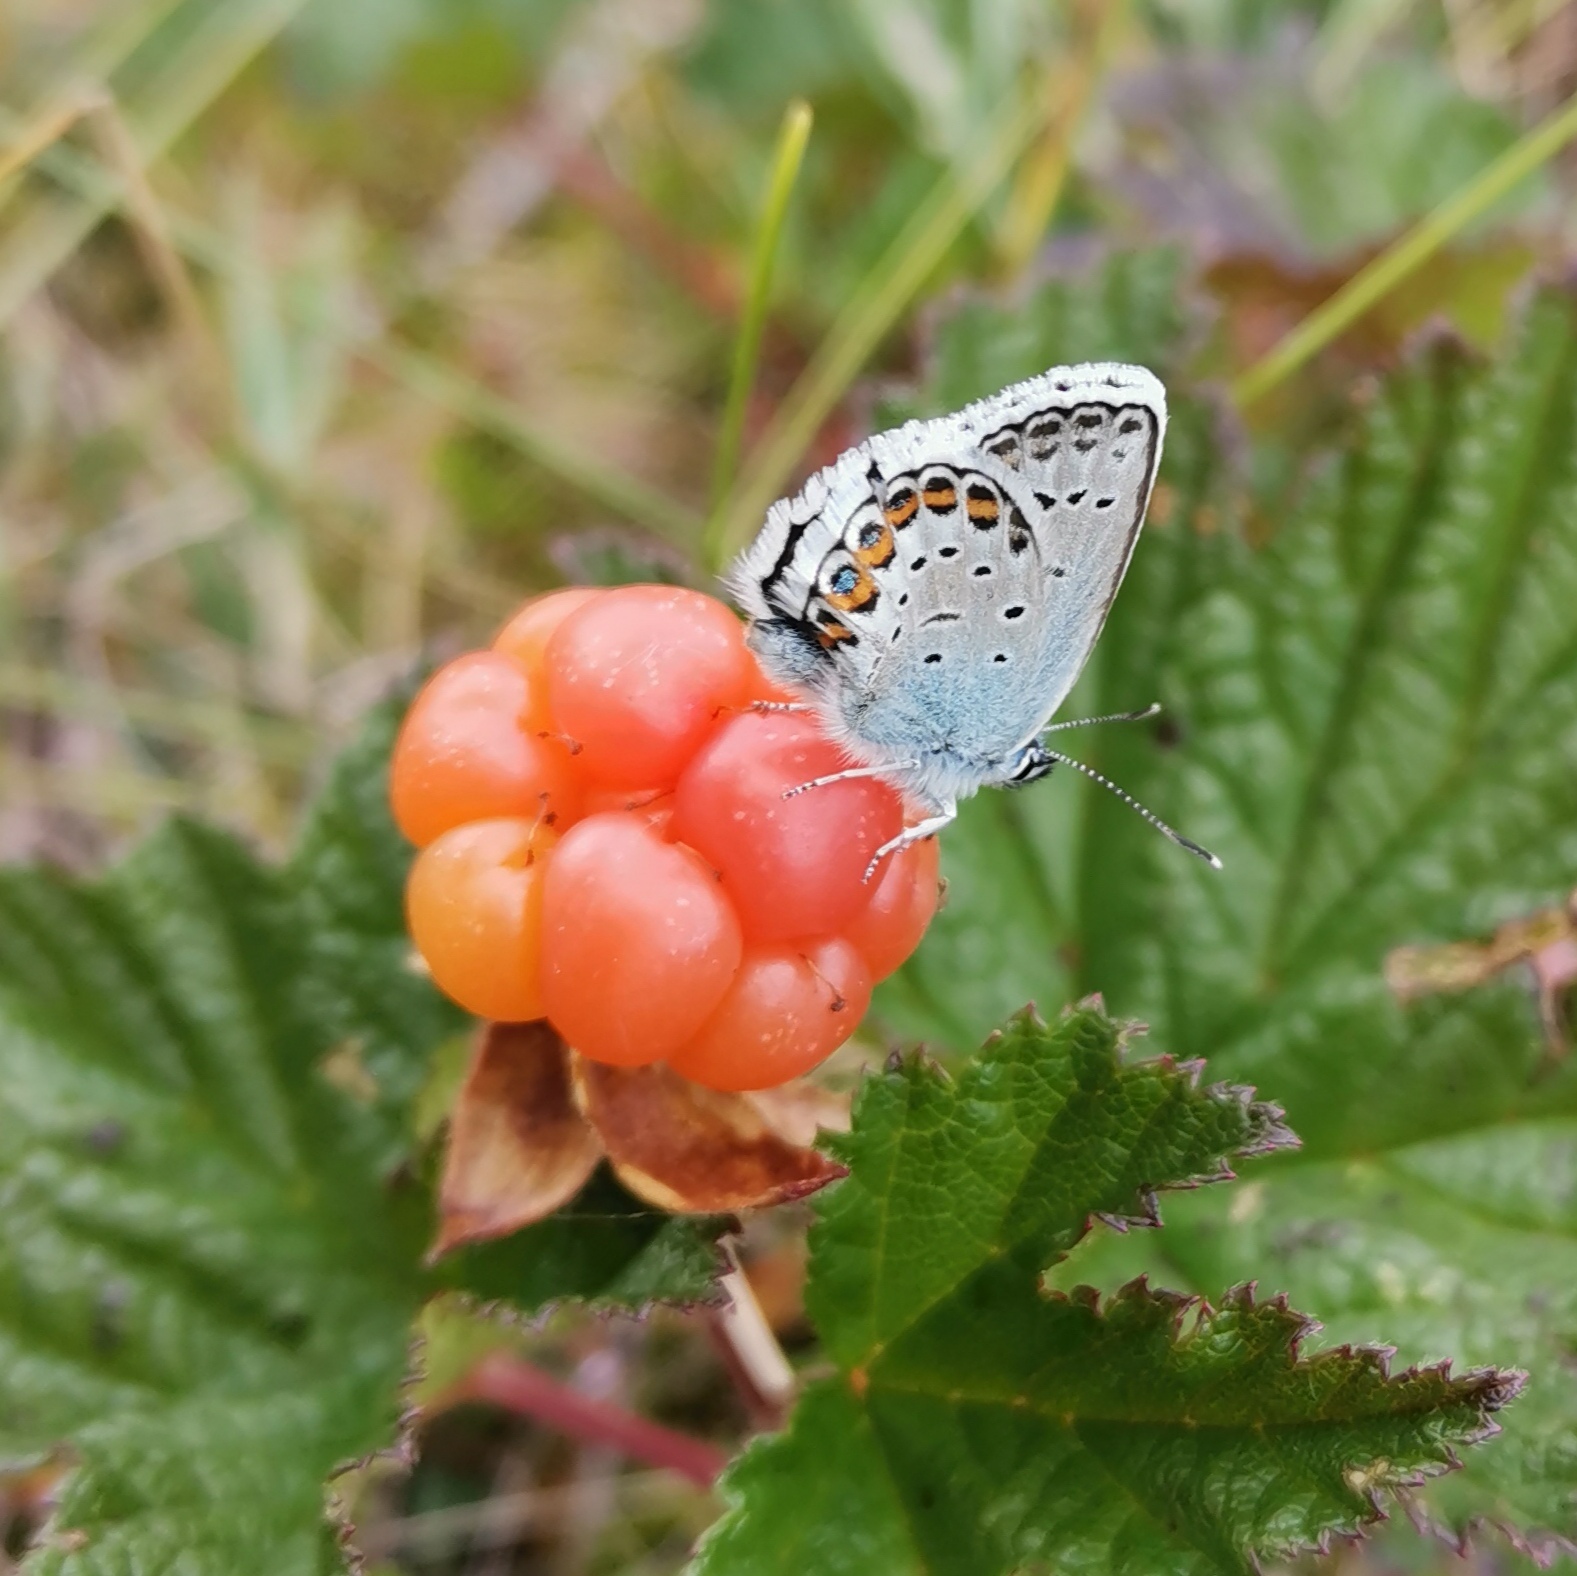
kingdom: Animalia
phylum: Arthropoda
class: Insecta
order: Lepidoptera
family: Lycaenidae
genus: Plebejus
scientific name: Plebejus argus
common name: Silver-studded blue
